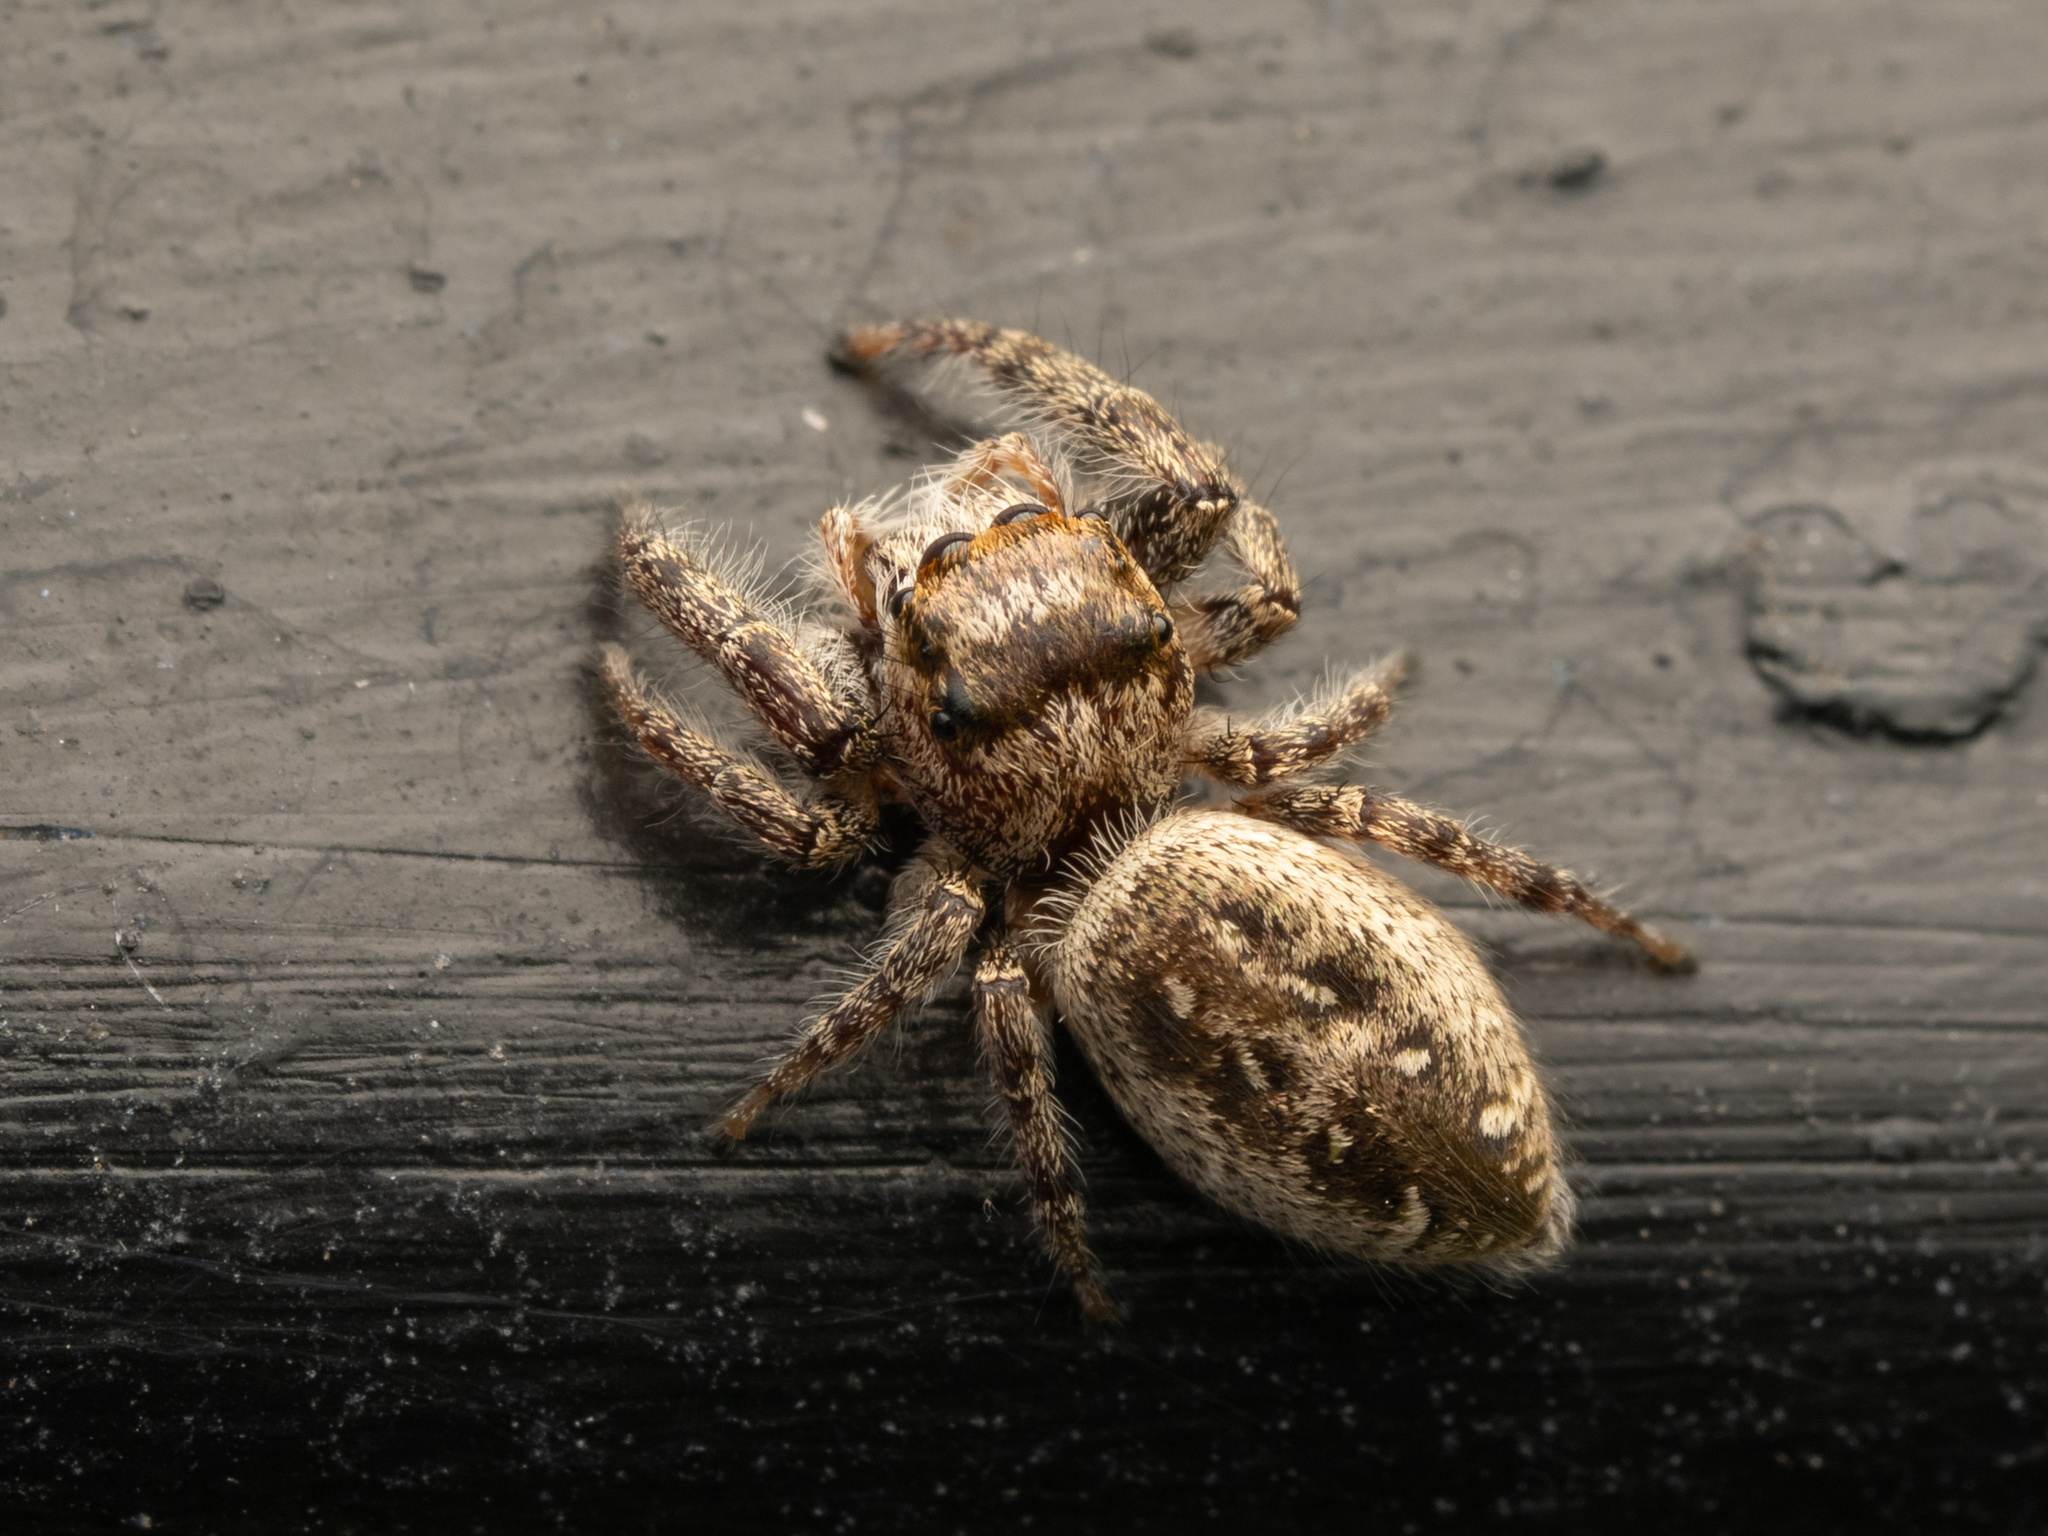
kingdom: Animalia
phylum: Arthropoda
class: Arachnida
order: Araneae
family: Salticidae
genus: Eris
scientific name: Eris militaris
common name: Bronze jumper
